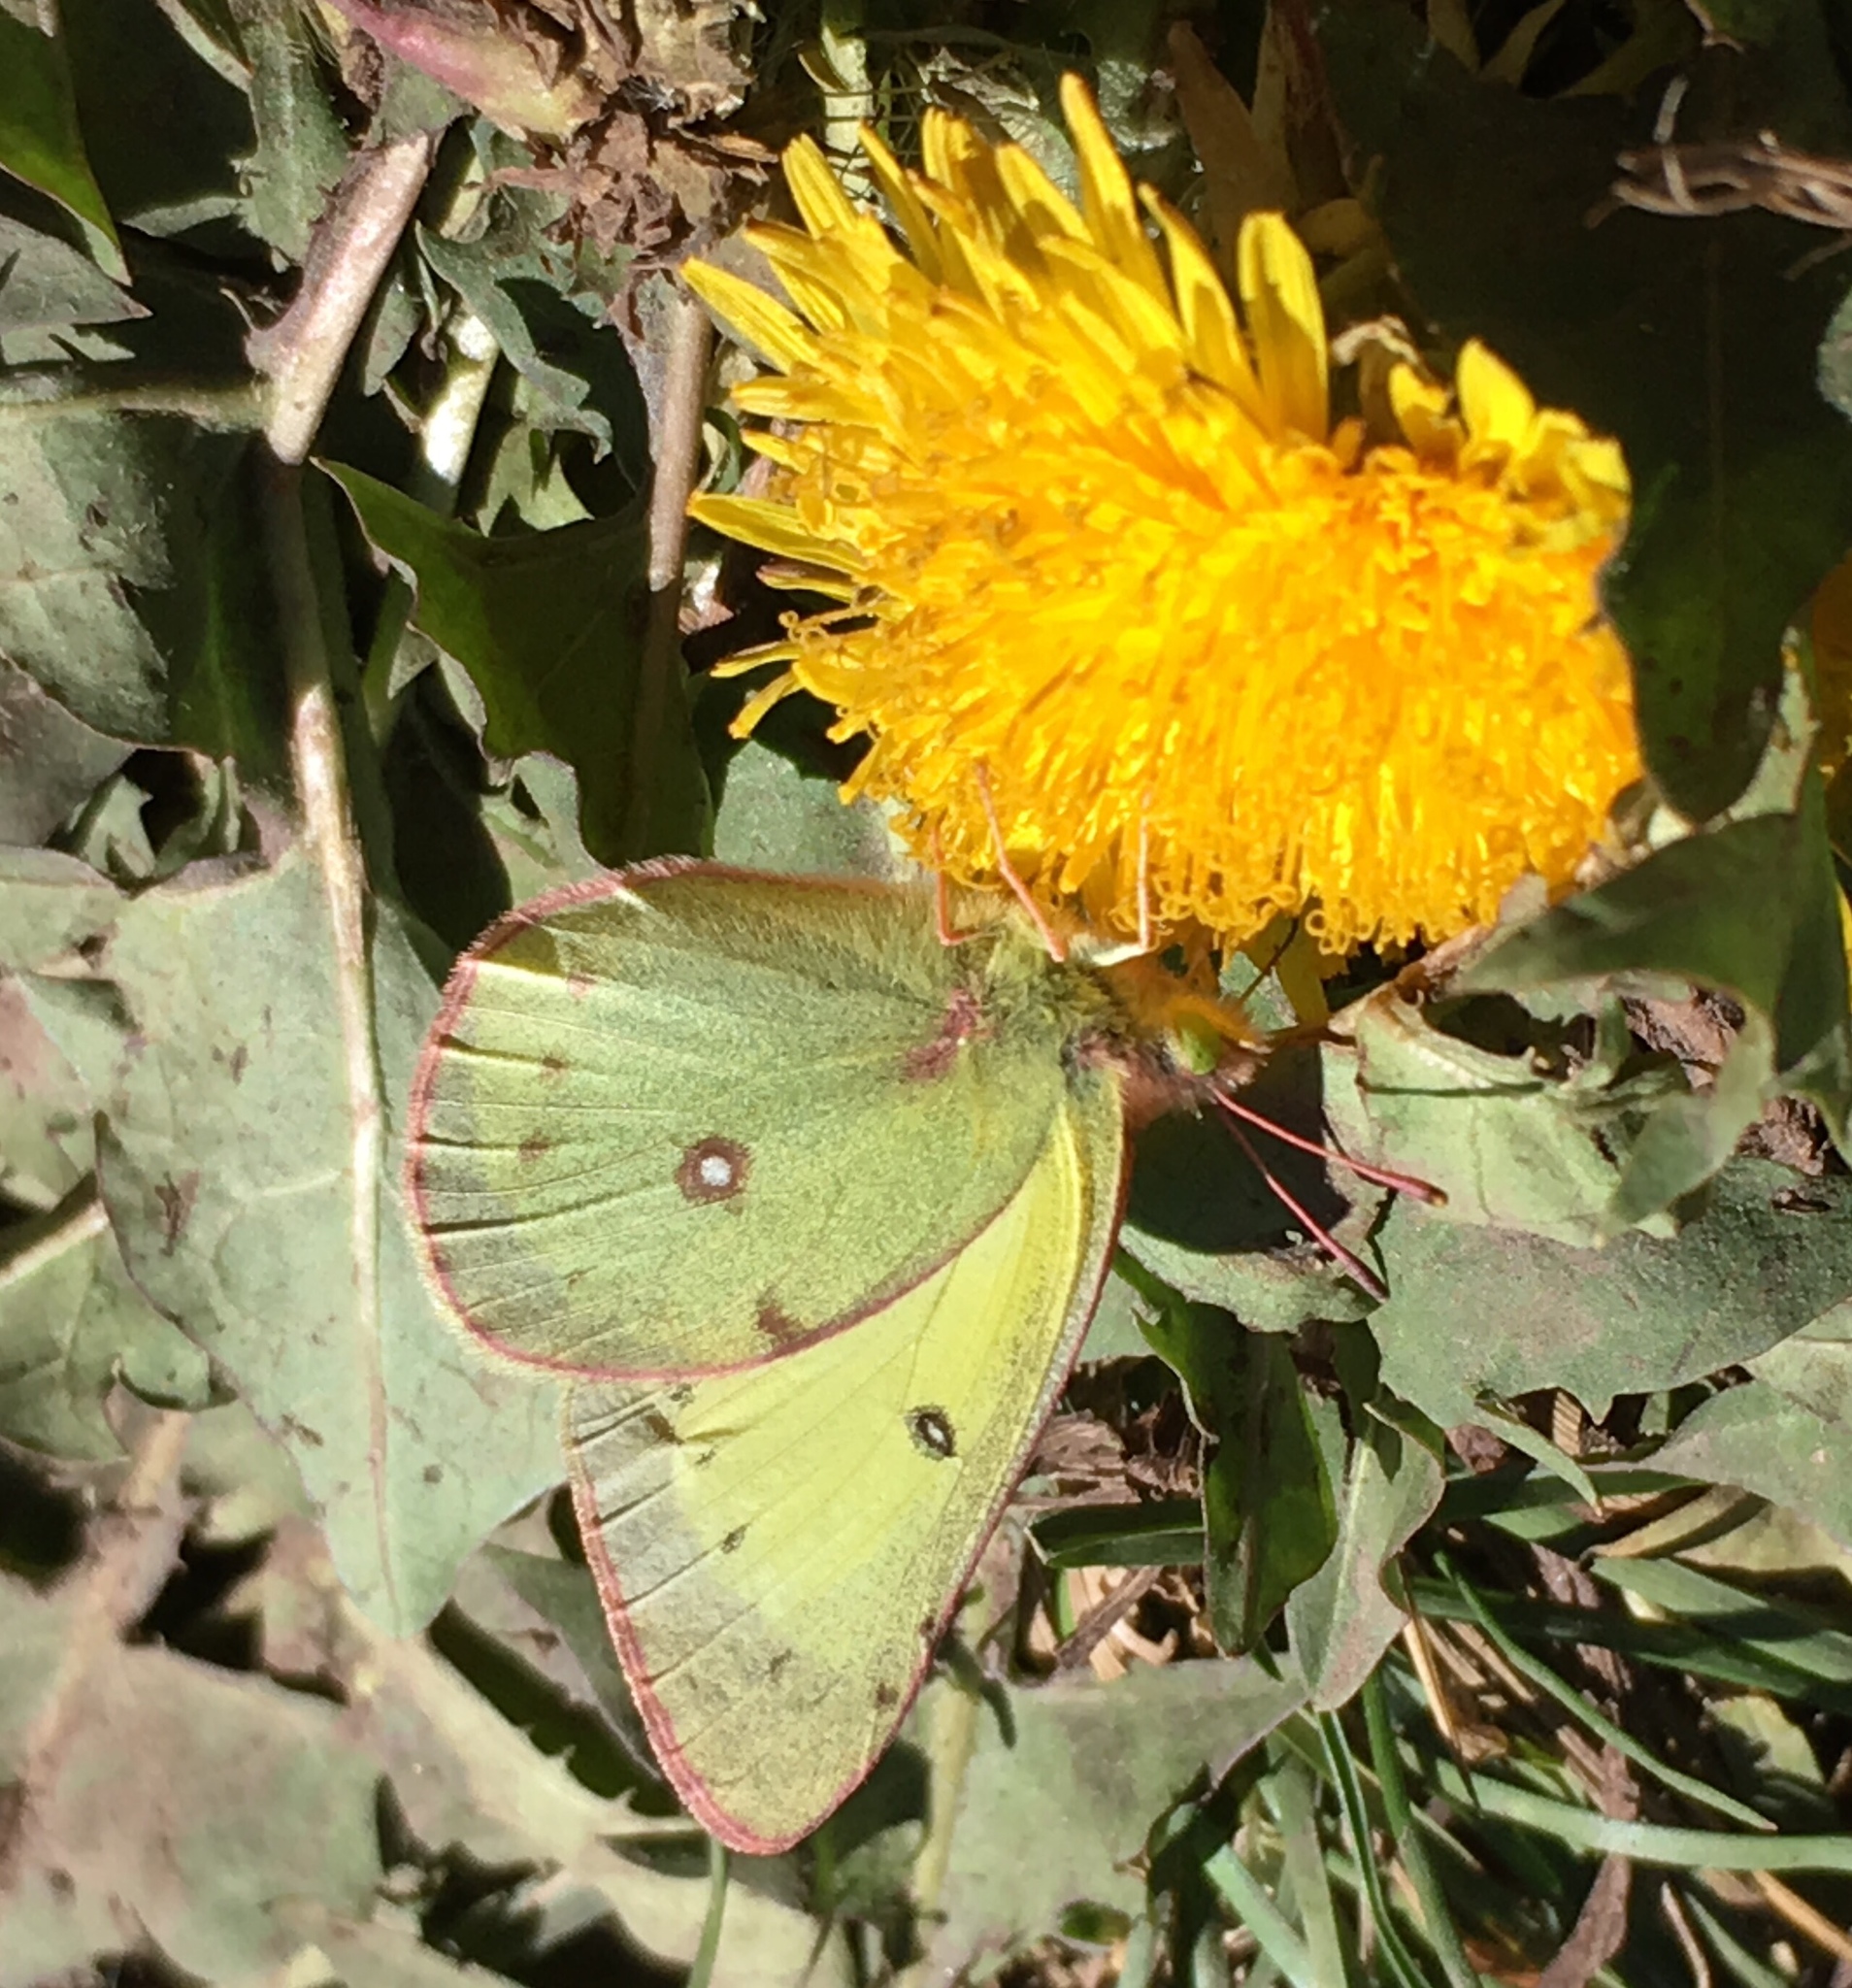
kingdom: Animalia
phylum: Arthropoda
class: Insecta
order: Lepidoptera
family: Pieridae
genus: Colias
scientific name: Colias philodice
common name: Clouded sulphur
